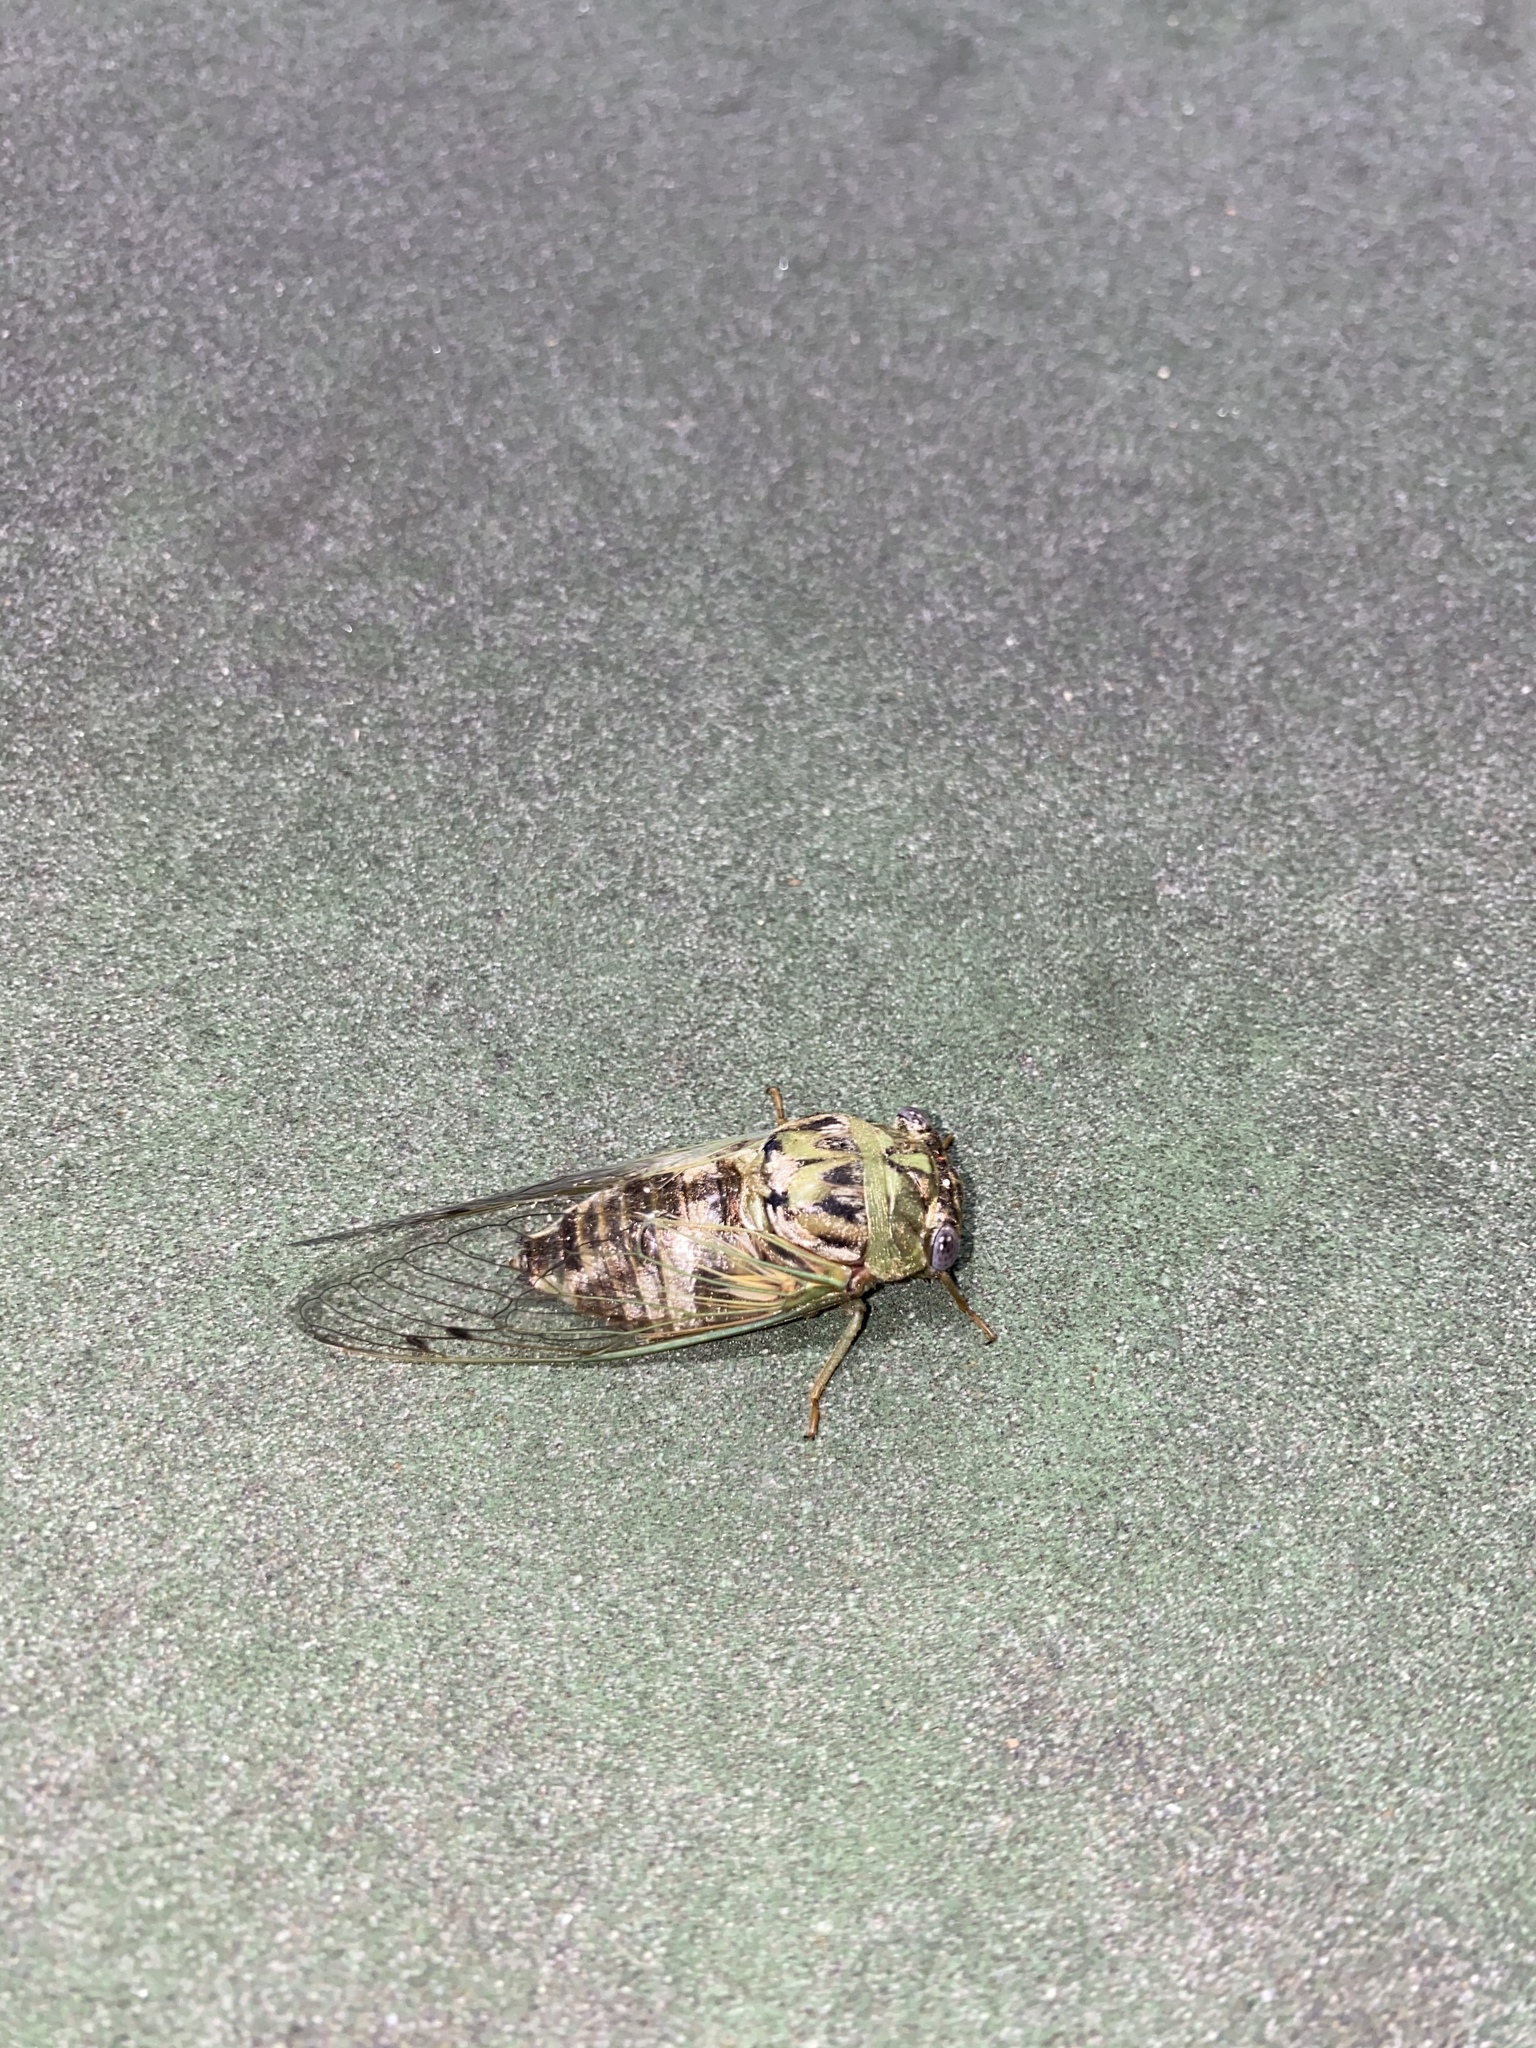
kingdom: Animalia
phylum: Arthropoda
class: Insecta
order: Hemiptera
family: Cicadidae
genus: Megatibicen
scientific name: Megatibicen resh
